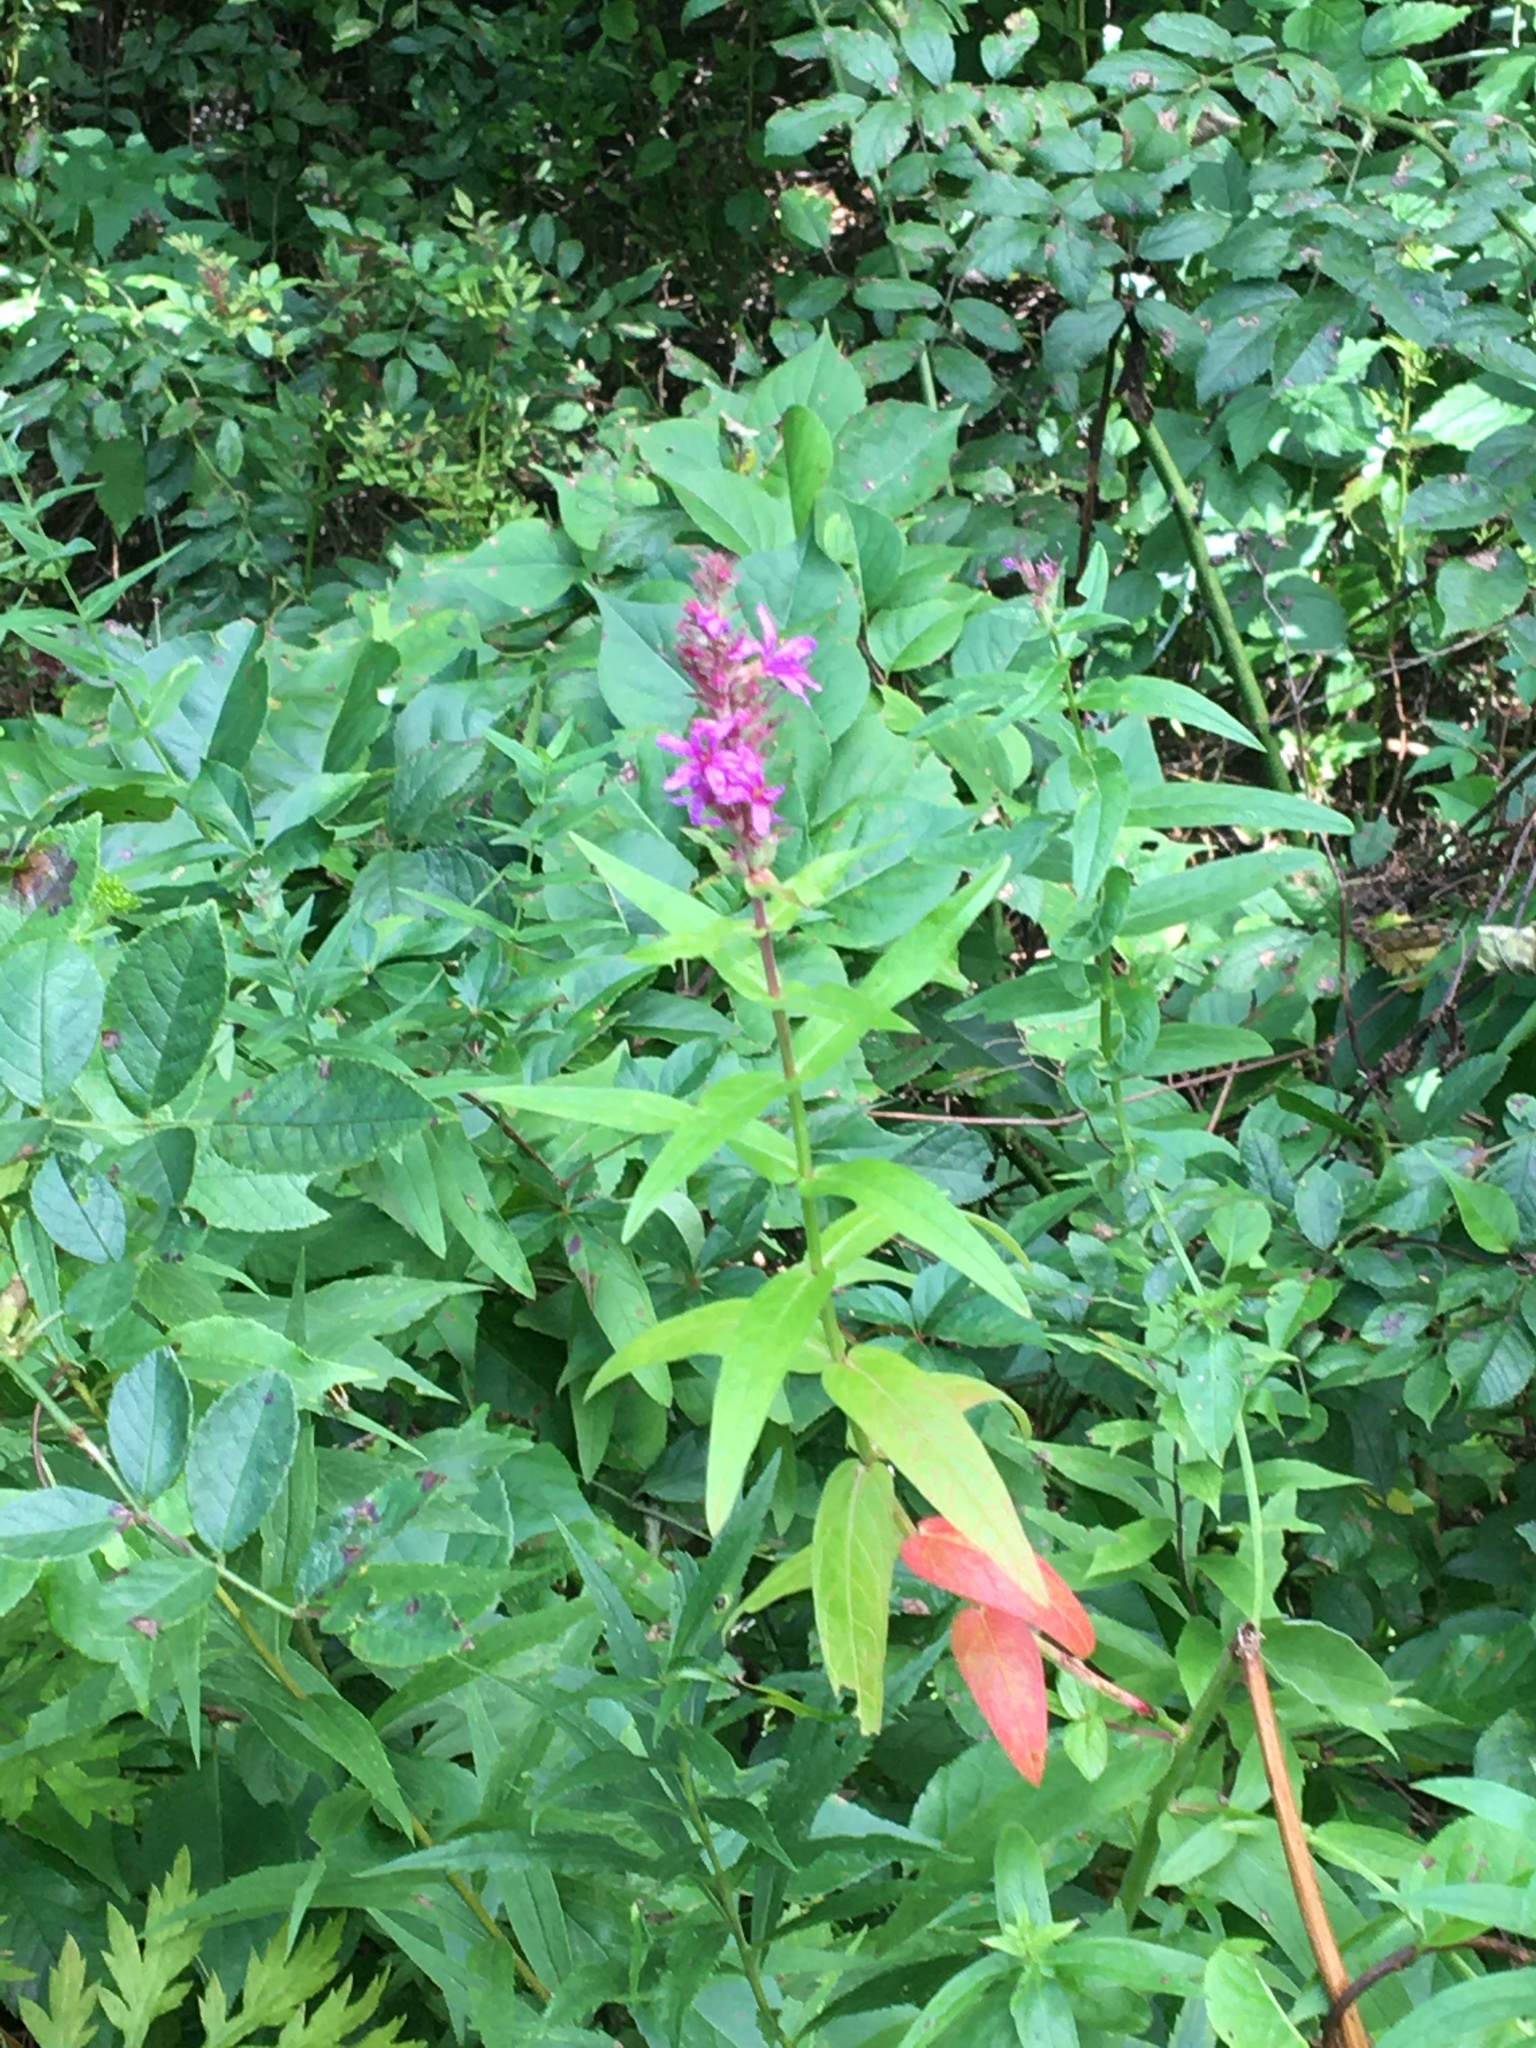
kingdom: Plantae
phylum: Tracheophyta
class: Magnoliopsida
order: Myrtales
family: Lythraceae
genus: Lythrum
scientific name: Lythrum salicaria
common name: Purple loosestrife
